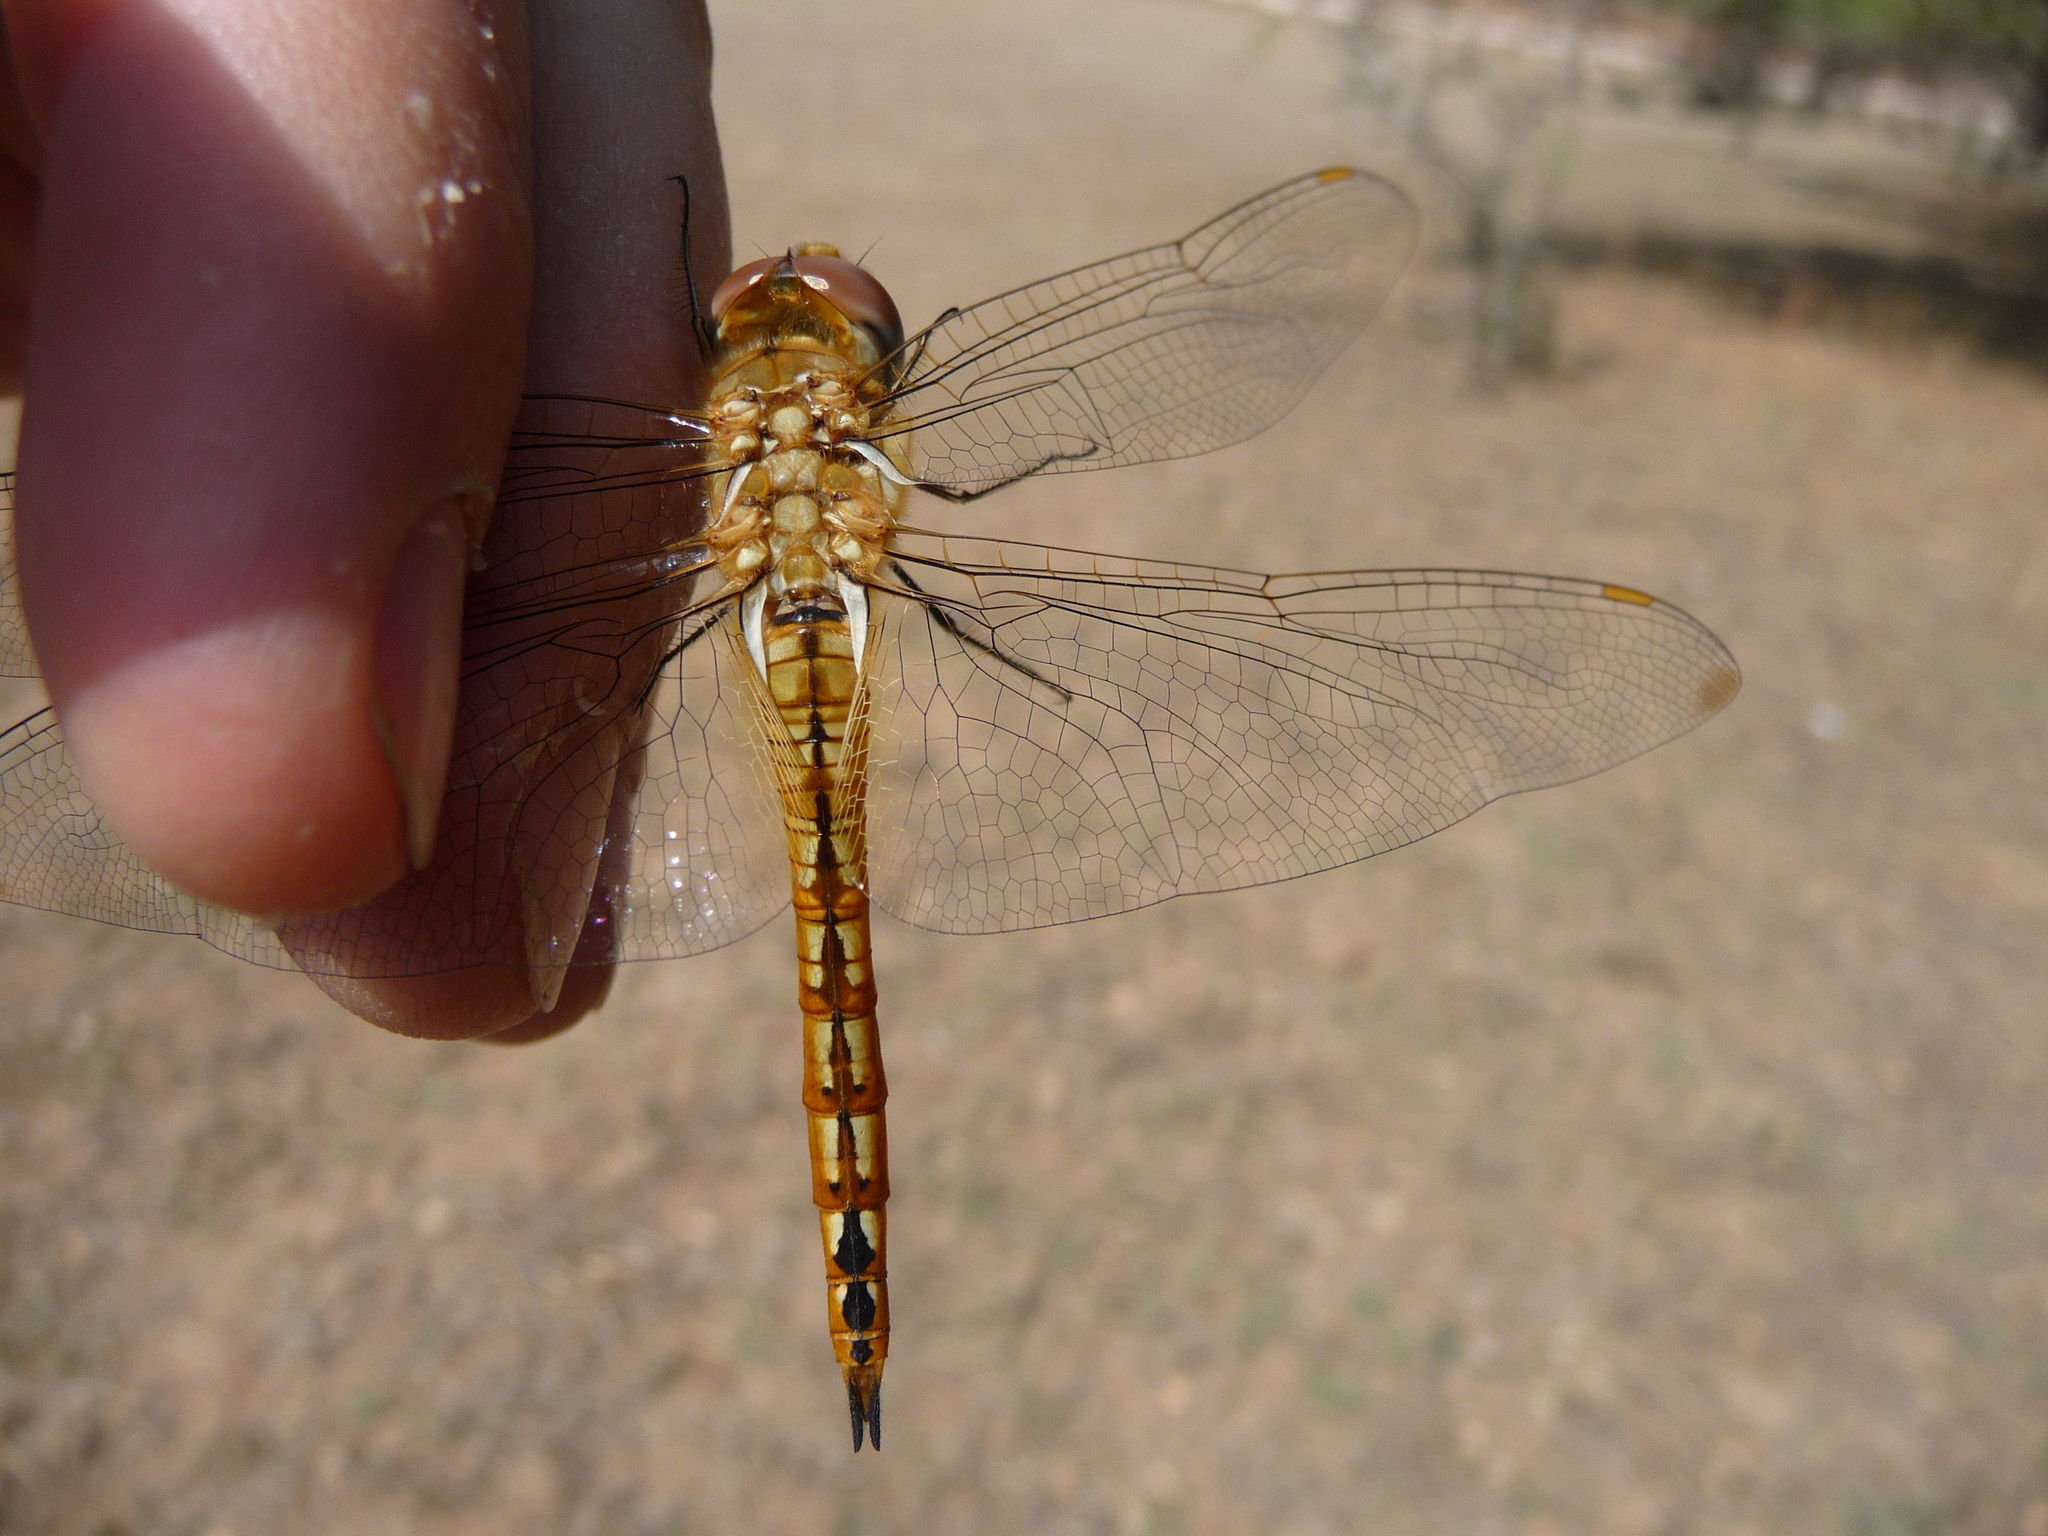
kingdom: Animalia
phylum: Arthropoda
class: Insecta
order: Odonata
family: Libellulidae
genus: Pantala
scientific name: Pantala flavescens
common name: Wandering glider
